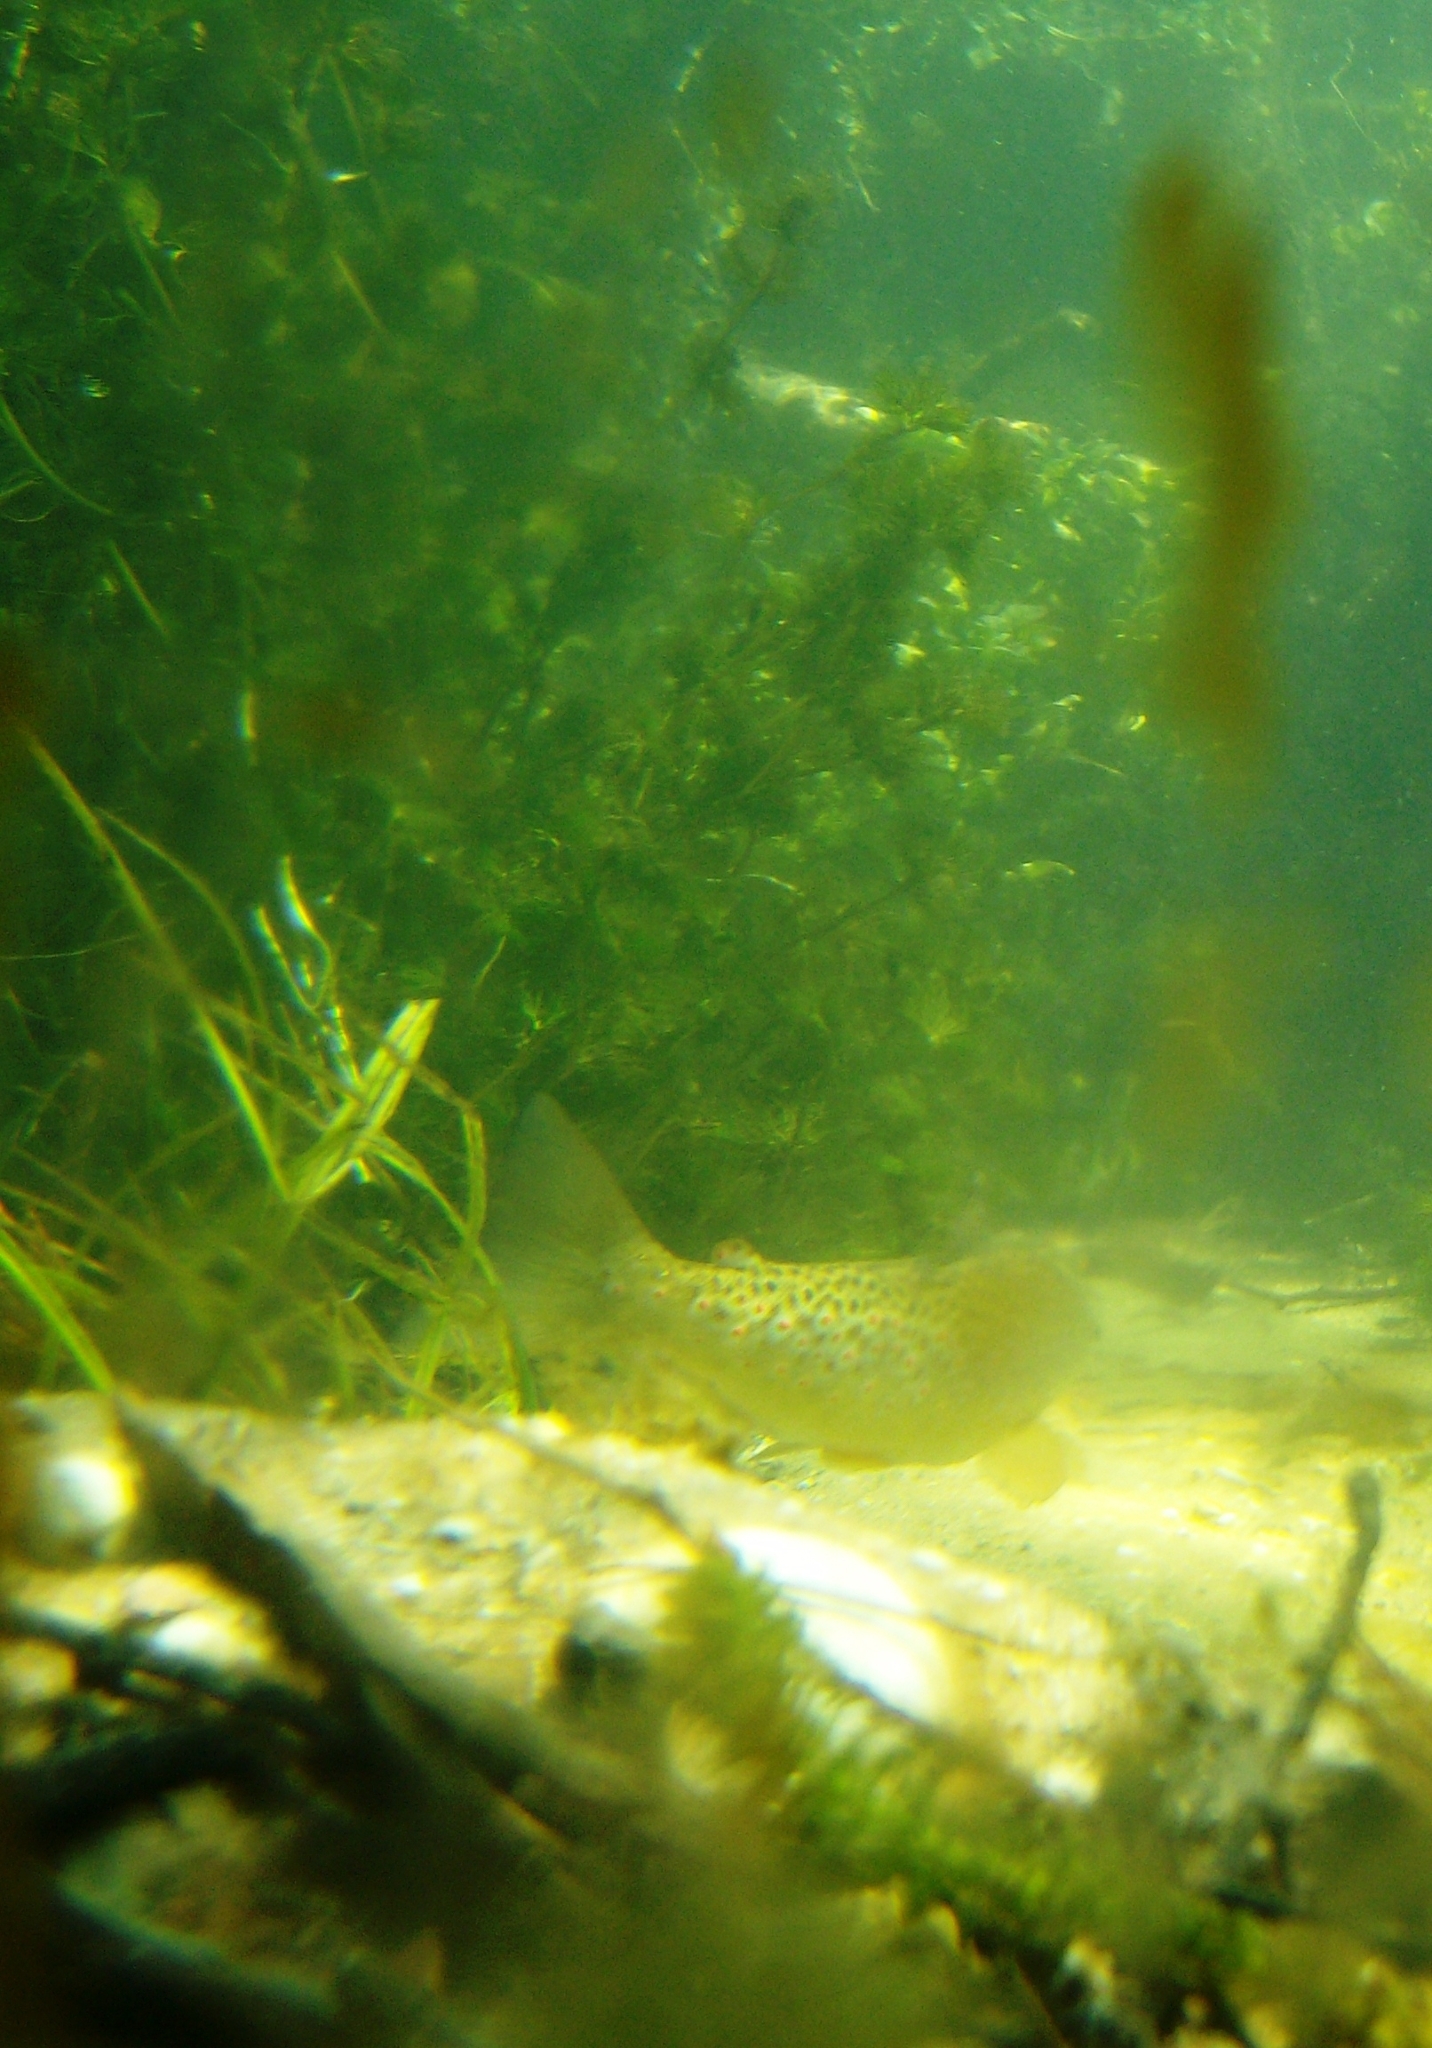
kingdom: Animalia
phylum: Chordata
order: Salmoniformes
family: Salmonidae
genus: Salmo
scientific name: Salmo trutta
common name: Brown trout
